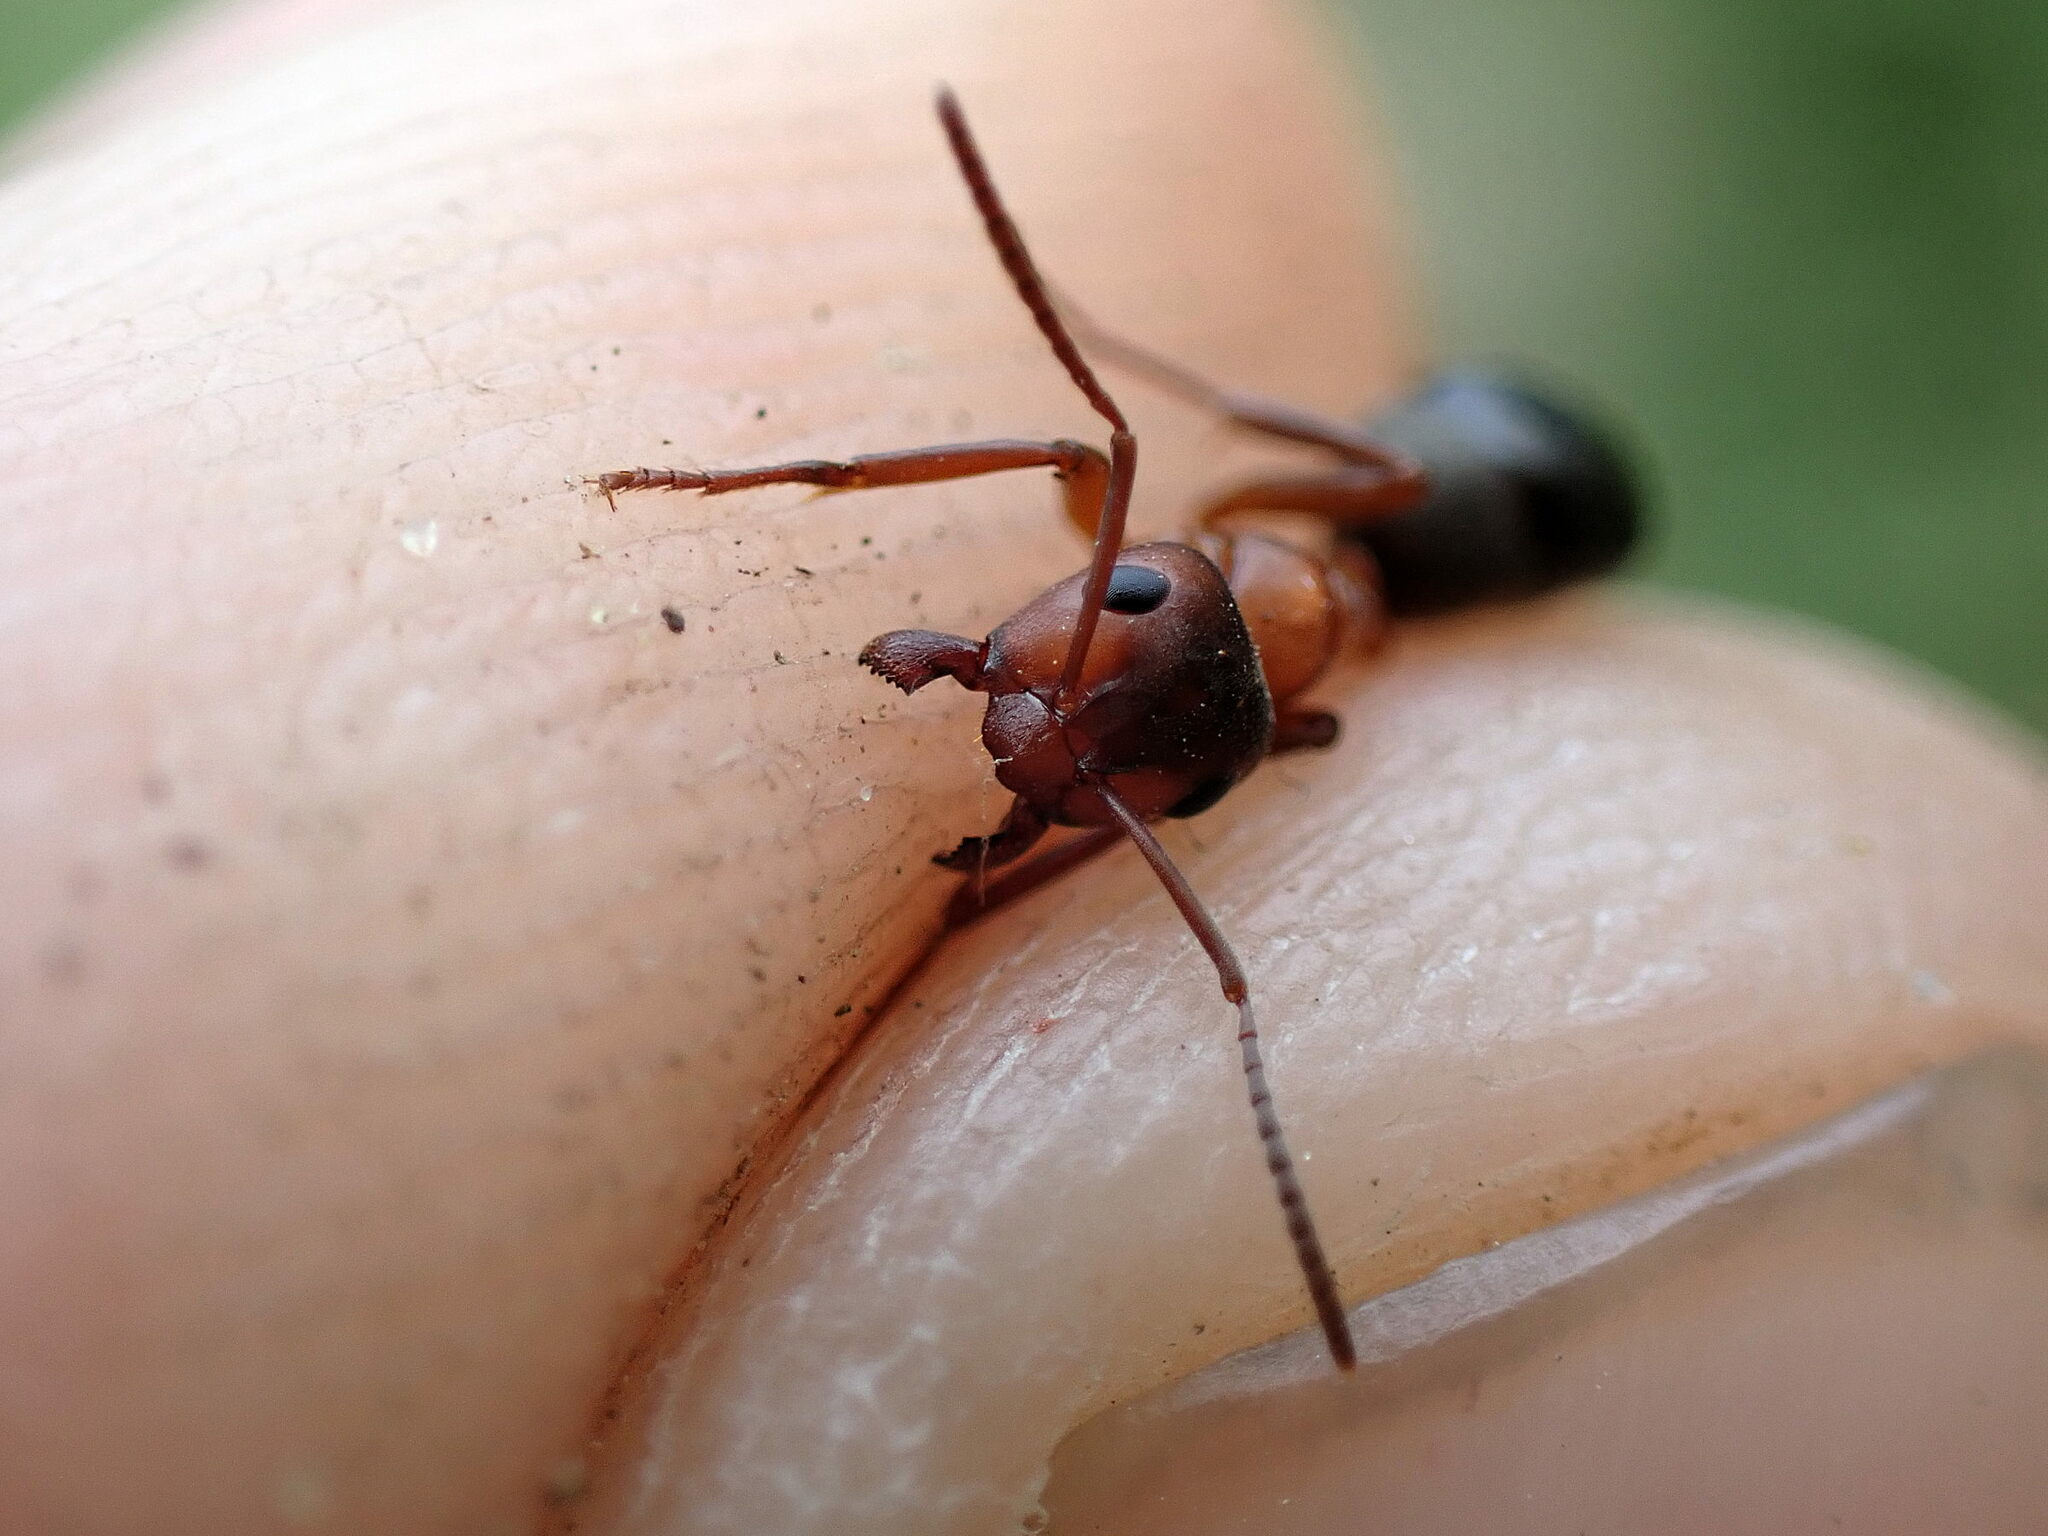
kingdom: Animalia
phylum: Arthropoda
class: Insecta
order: Hymenoptera
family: Formicidae
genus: Formica
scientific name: Formica sanguinea
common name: Blood-red ant
